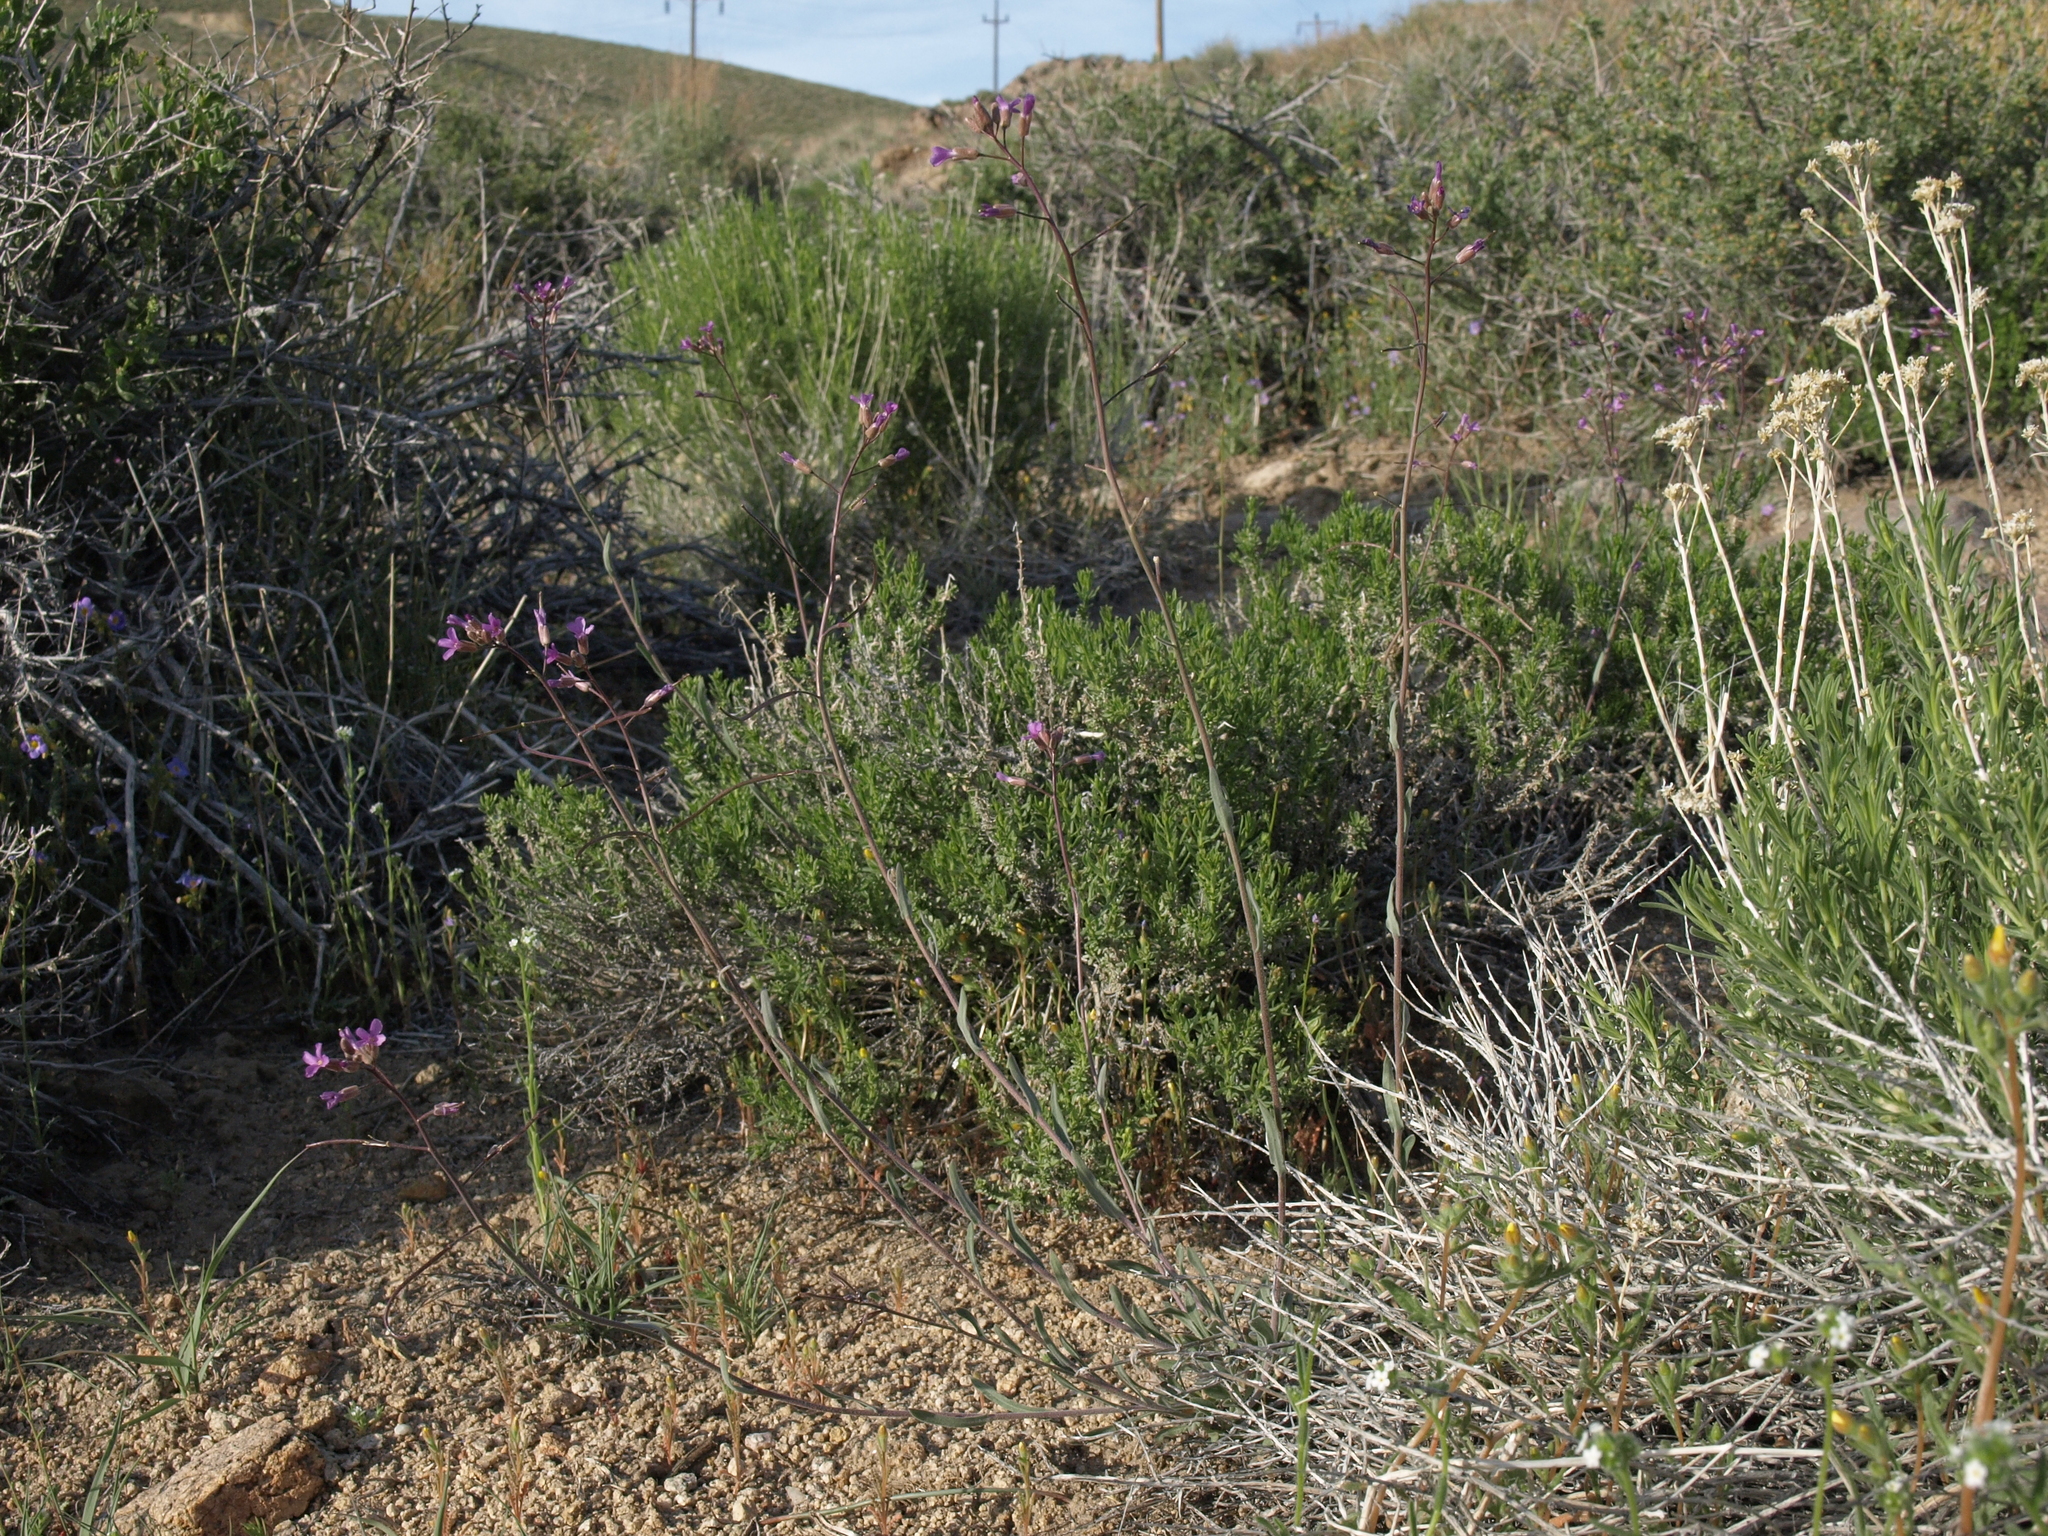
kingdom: Plantae
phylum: Tracheophyta
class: Magnoliopsida
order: Brassicales
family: Brassicaceae
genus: Boechera
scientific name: Boechera lincolnensis
